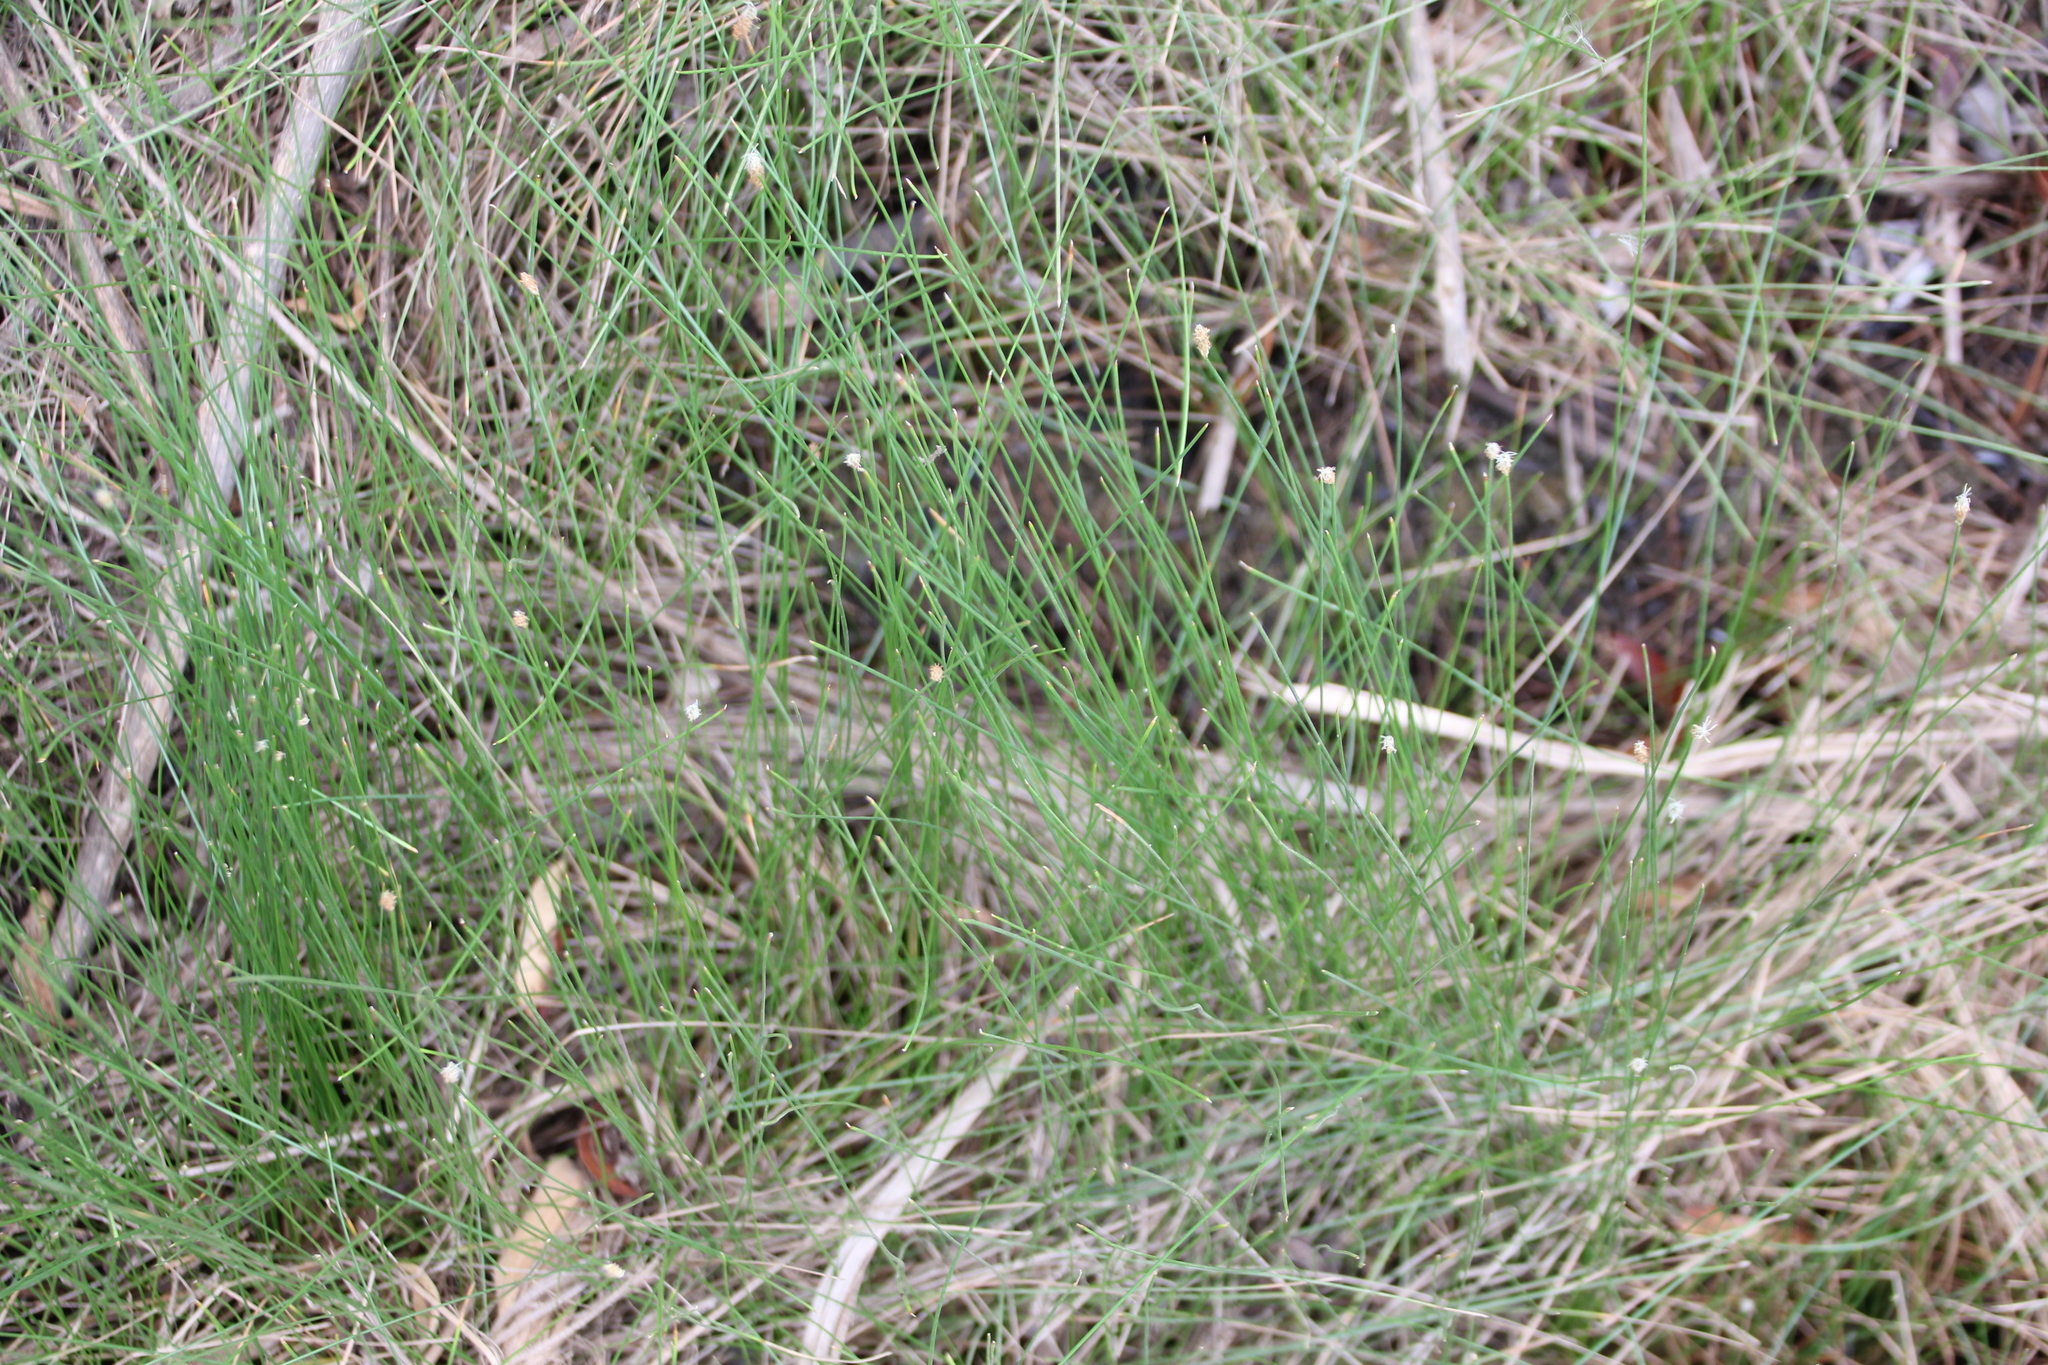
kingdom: Plantae
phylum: Tracheophyta
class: Liliopsida
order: Poales
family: Cyperaceae
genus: Eleocharis
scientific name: Eleocharis
